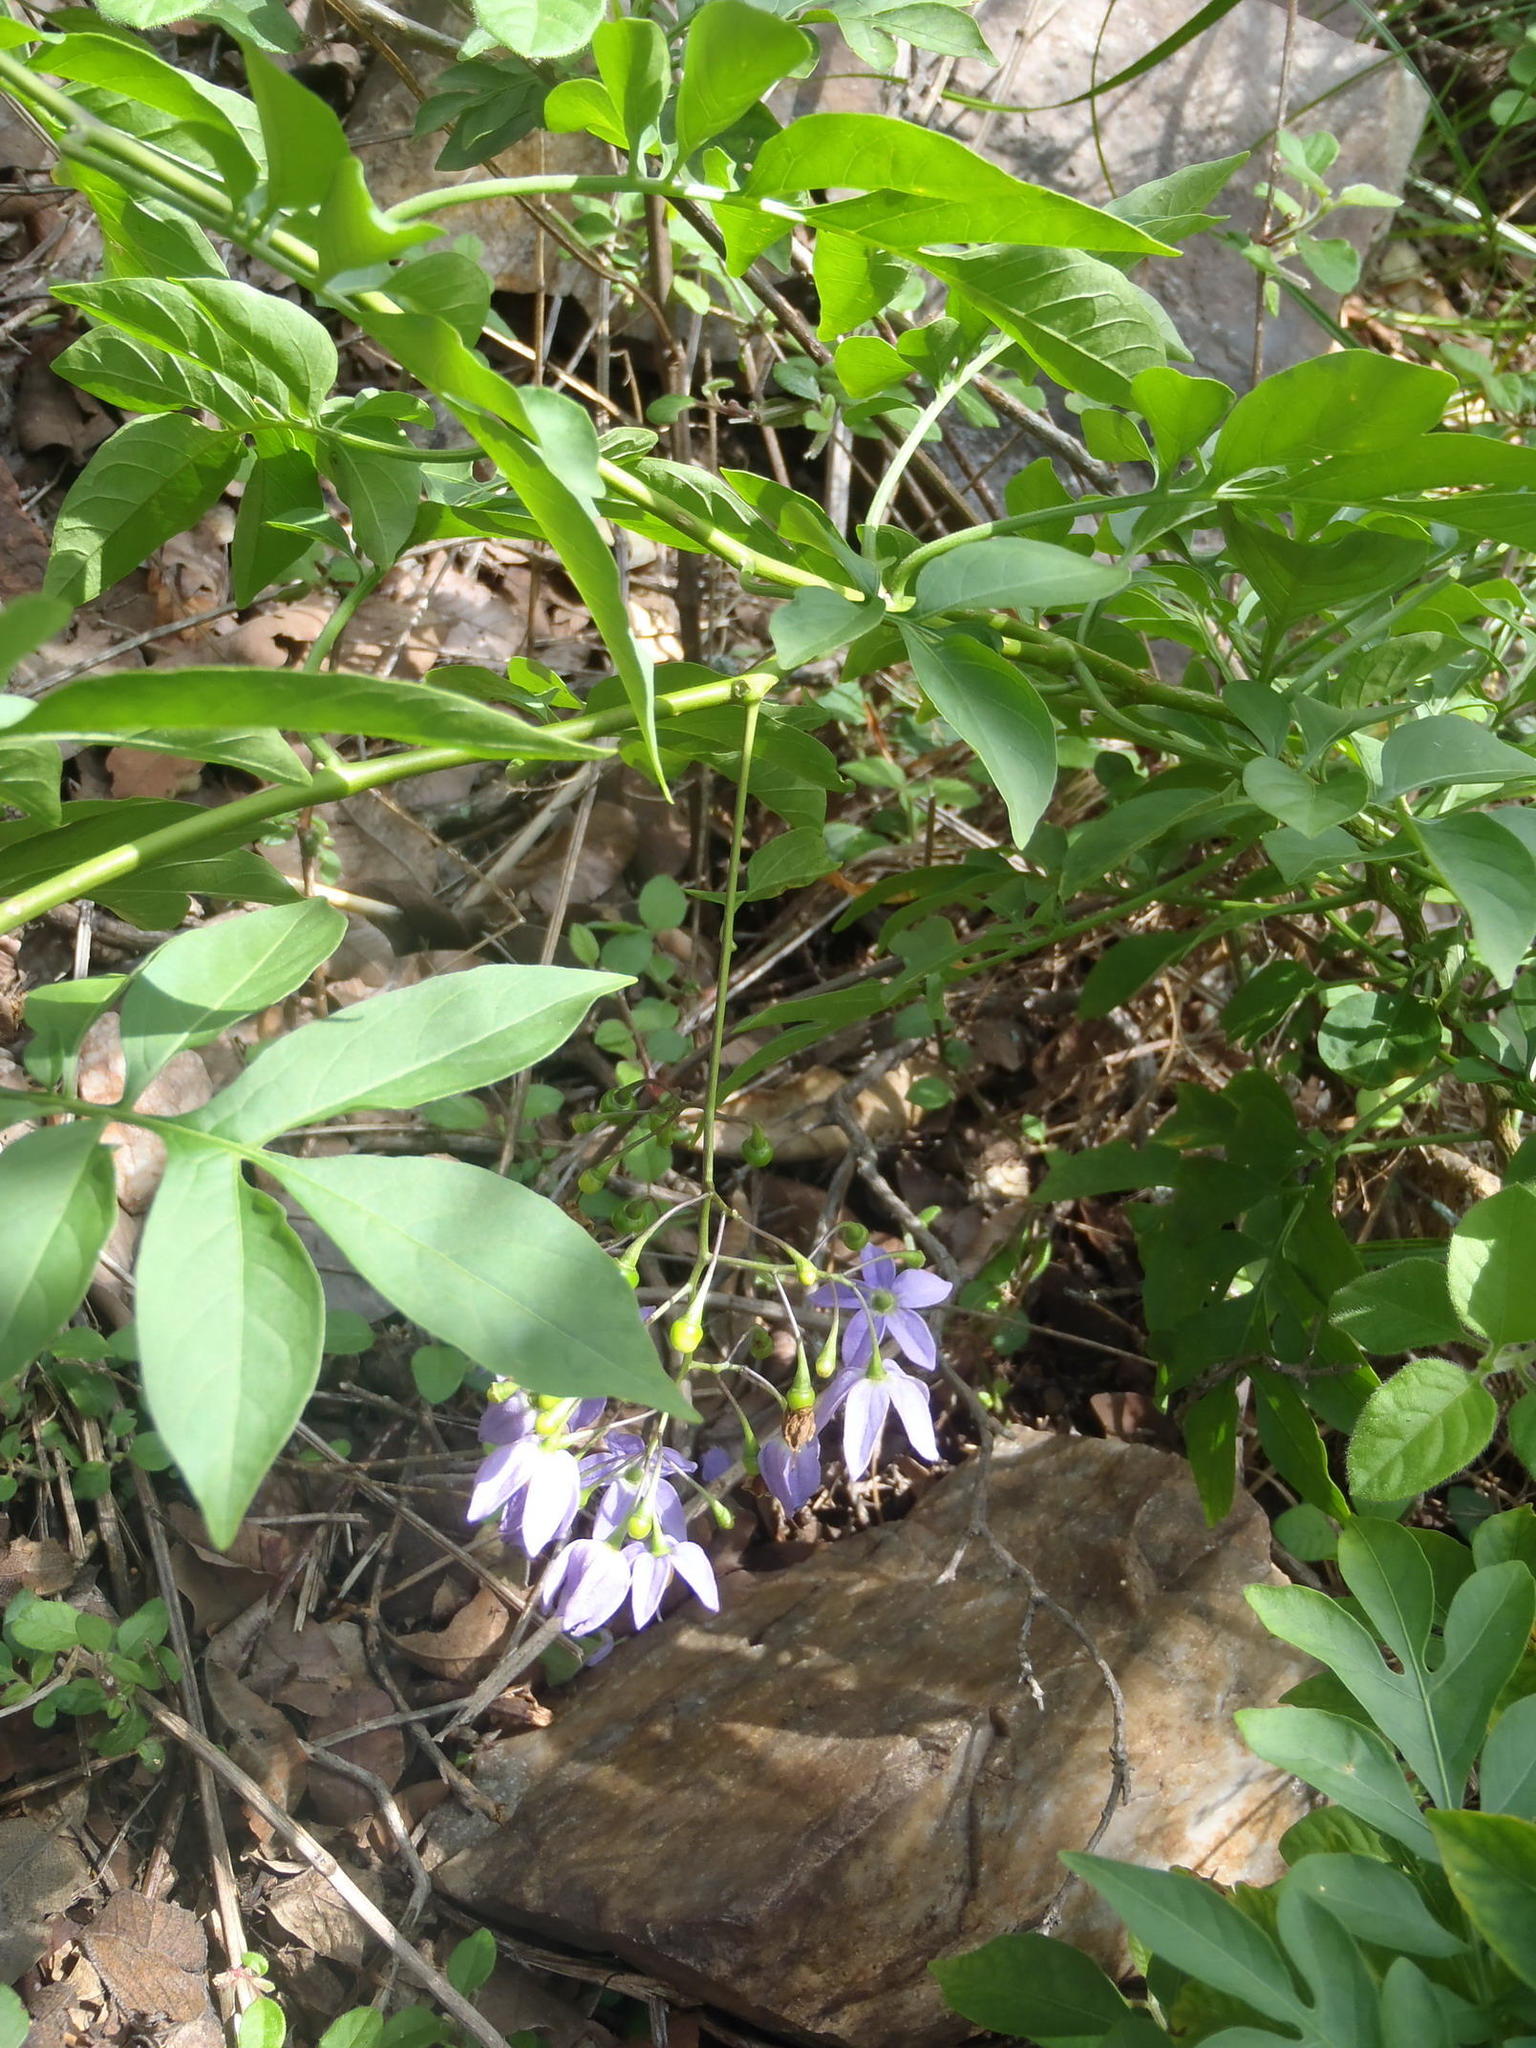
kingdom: Plantae
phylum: Tracheophyta
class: Magnoliopsida
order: Solanales
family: Solanaceae
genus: Solanum
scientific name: Solanum seaforthianum
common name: Brazilian nightshade
